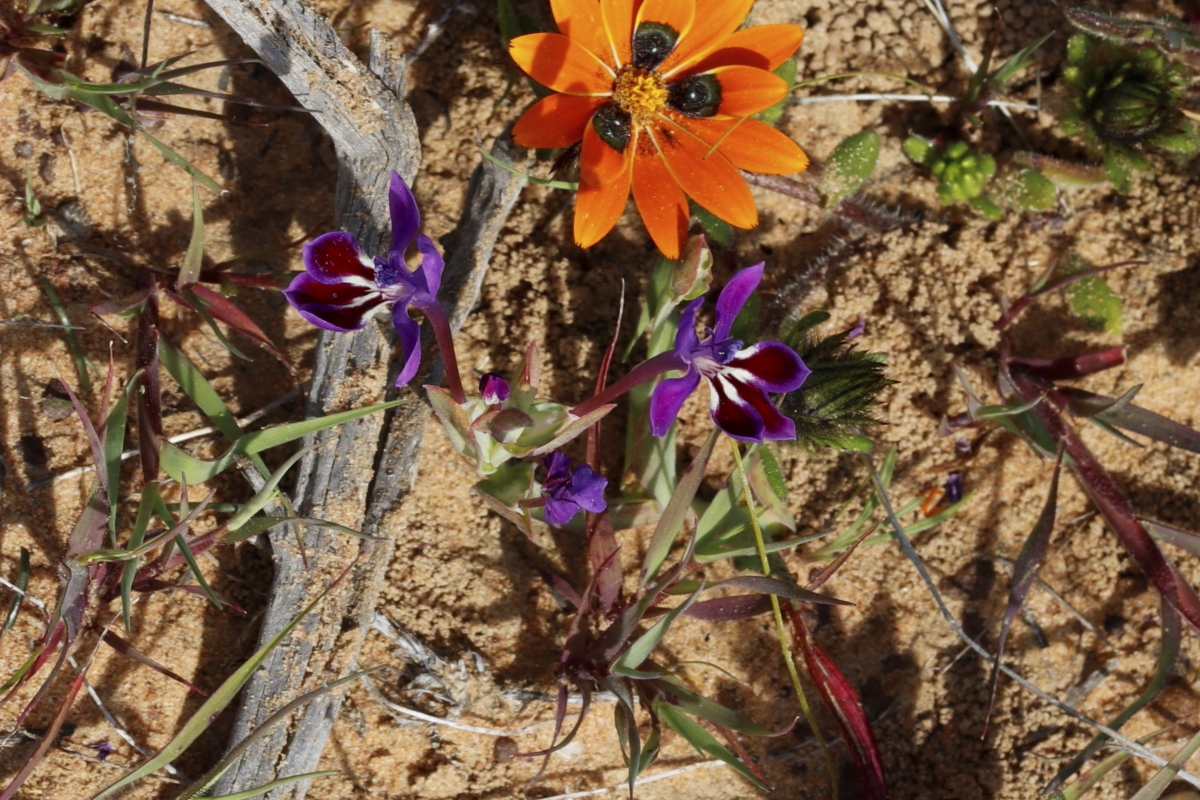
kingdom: Plantae
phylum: Tracheophyta
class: Liliopsida
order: Asparagales
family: Iridaceae
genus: Lapeirousia
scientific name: Lapeirousia jacquinii
